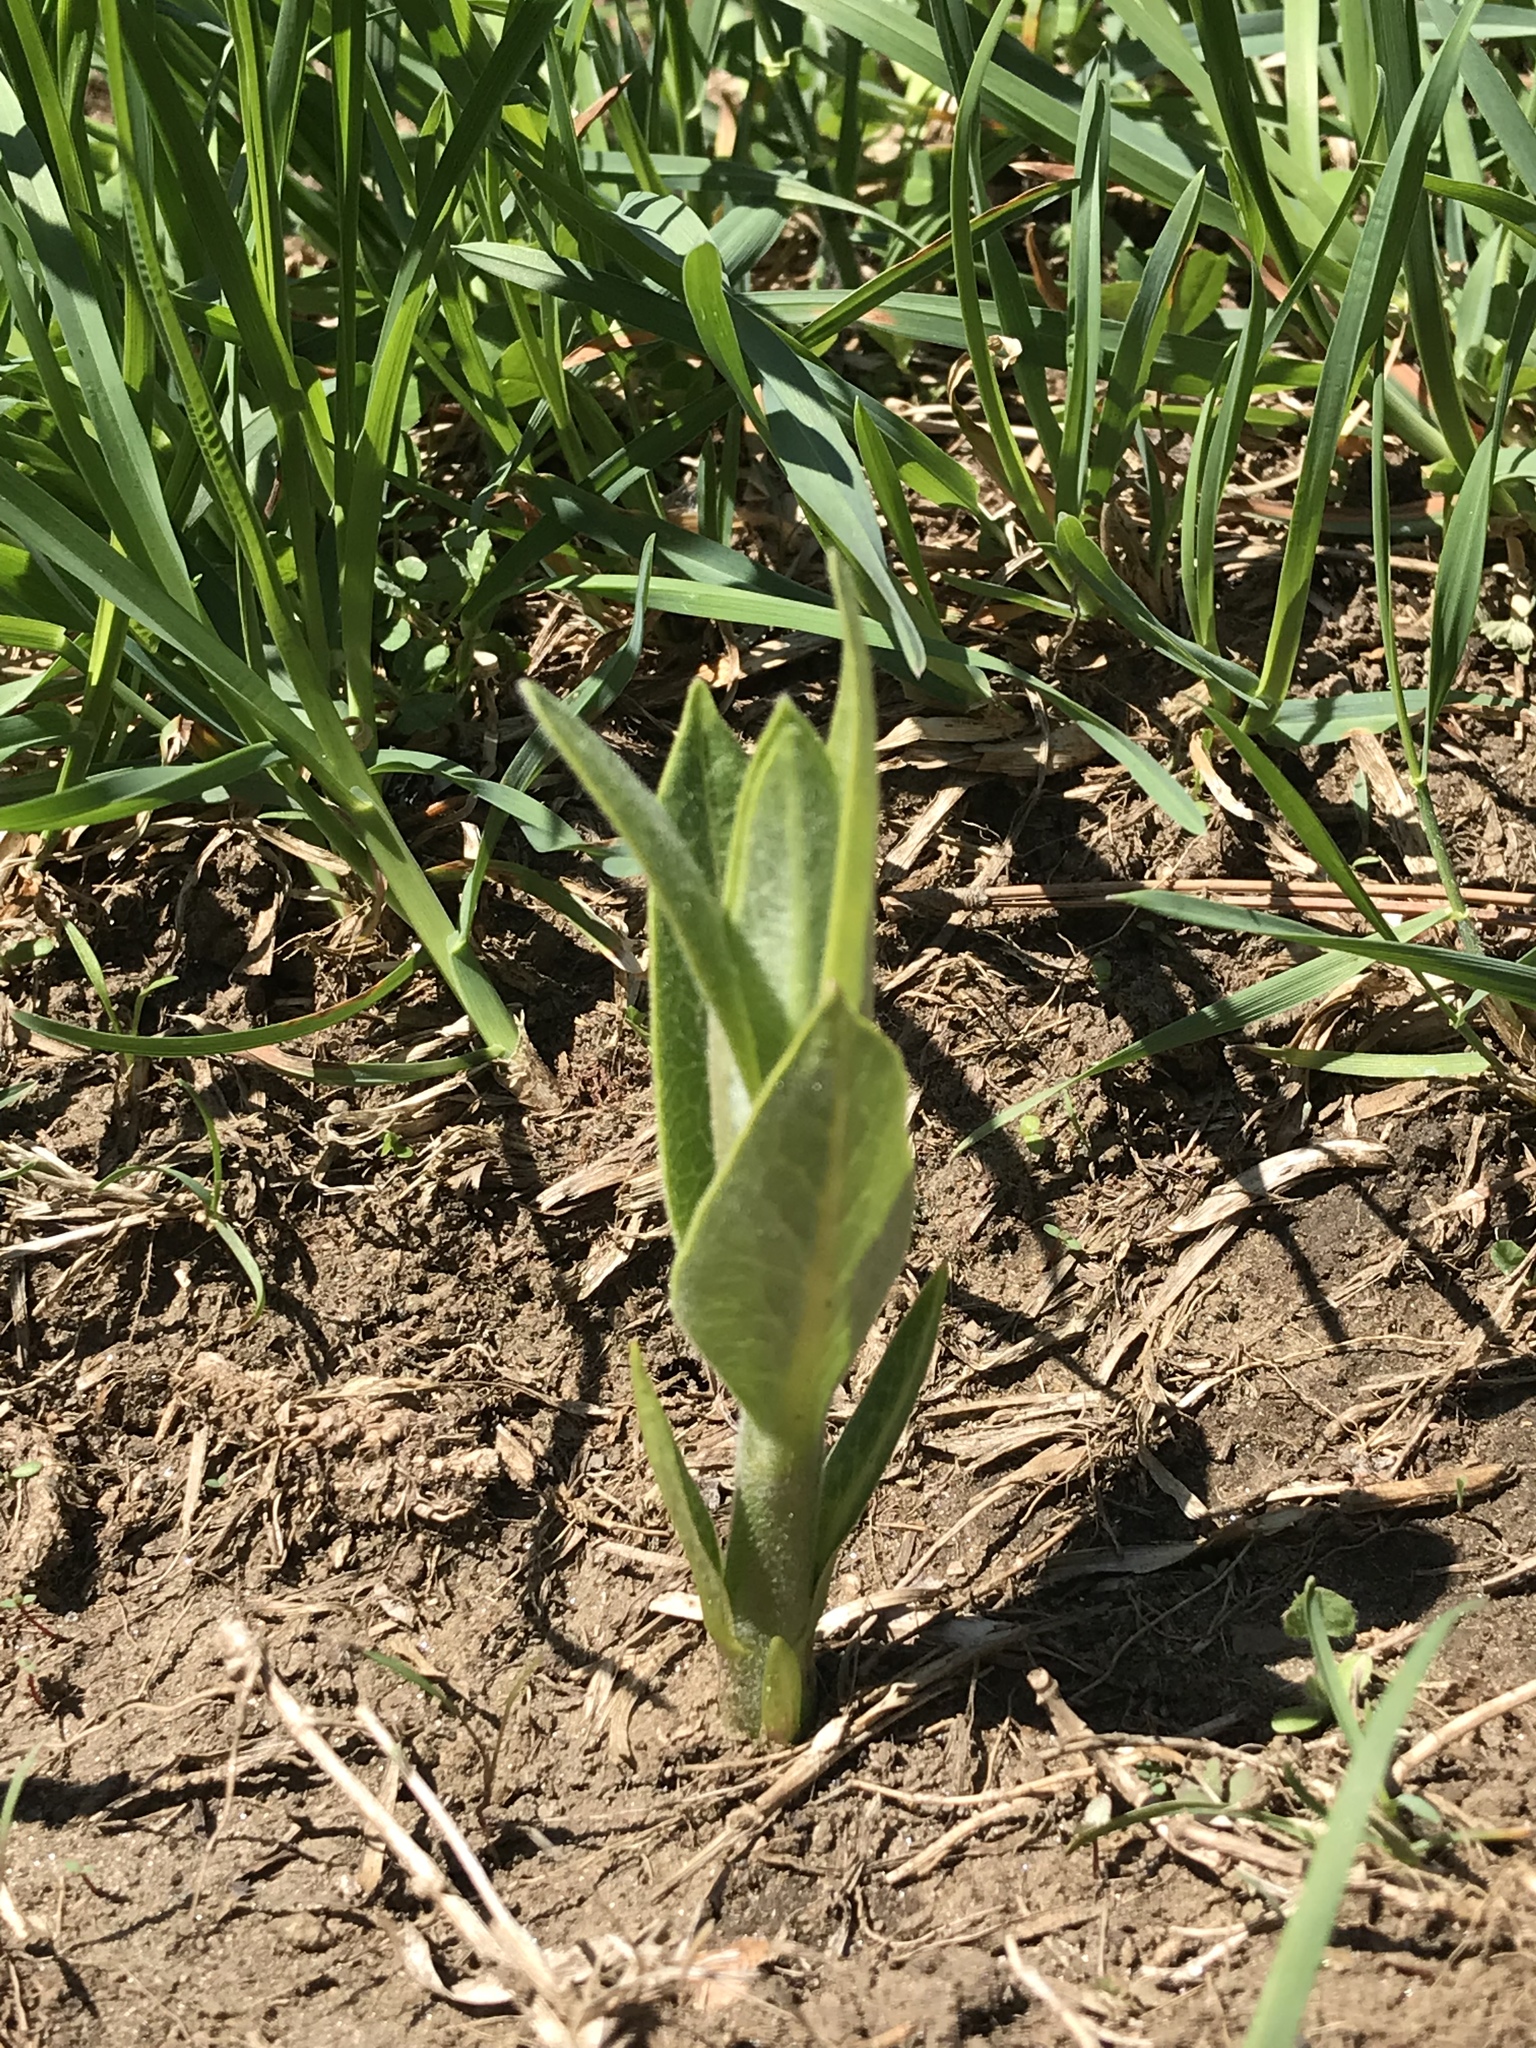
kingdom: Plantae
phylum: Tracheophyta
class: Magnoliopsida
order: Gentianales
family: Apocynaceae
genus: Asclepias
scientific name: Asclepias syriaca
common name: Common milkweed
